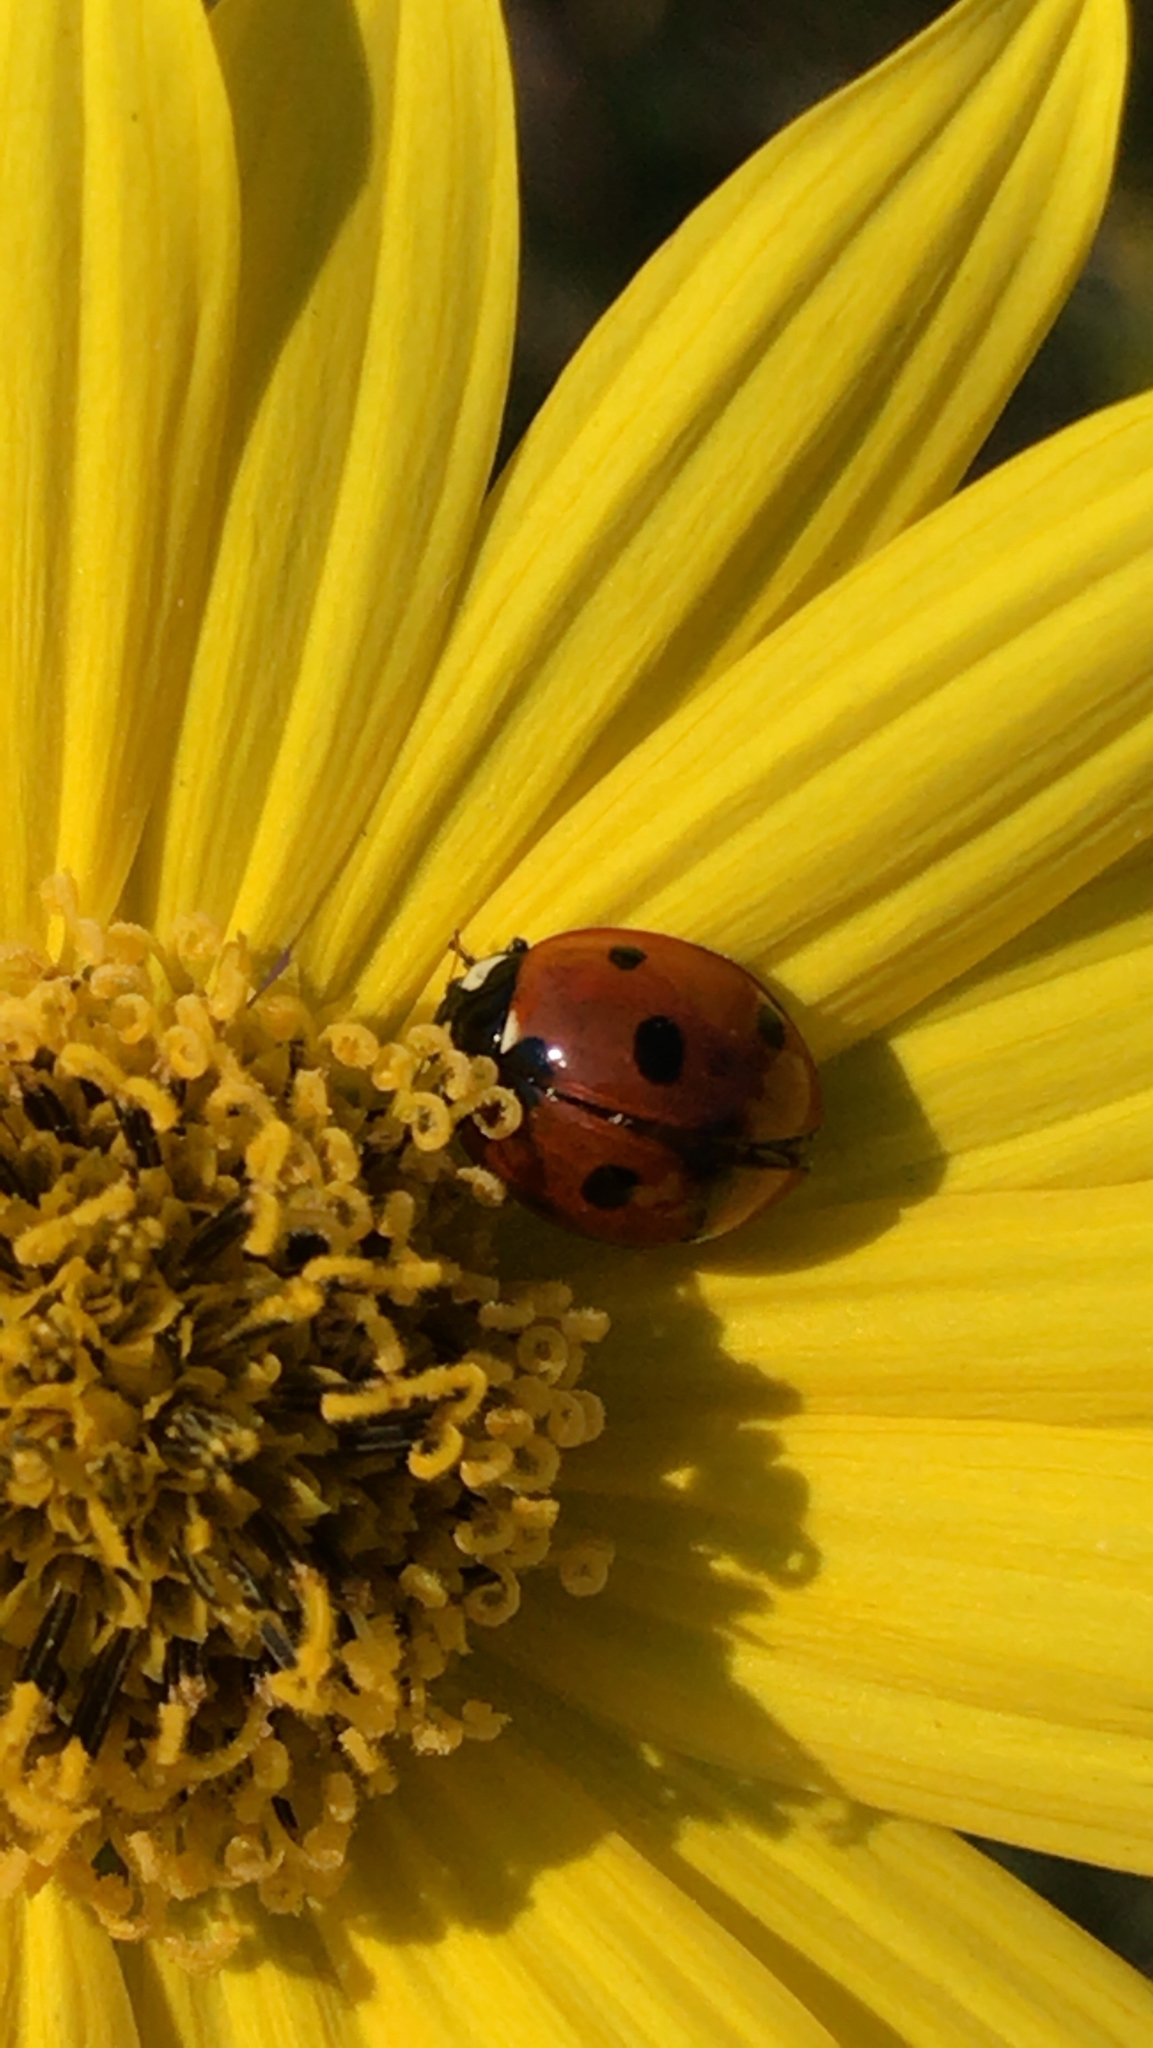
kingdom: Animalia
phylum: Arthropoda
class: Insecta
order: Coleoptera
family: Coccinellidae
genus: Coccinella
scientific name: Coccinella septempunctata
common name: Sevenspotted lady beetle
